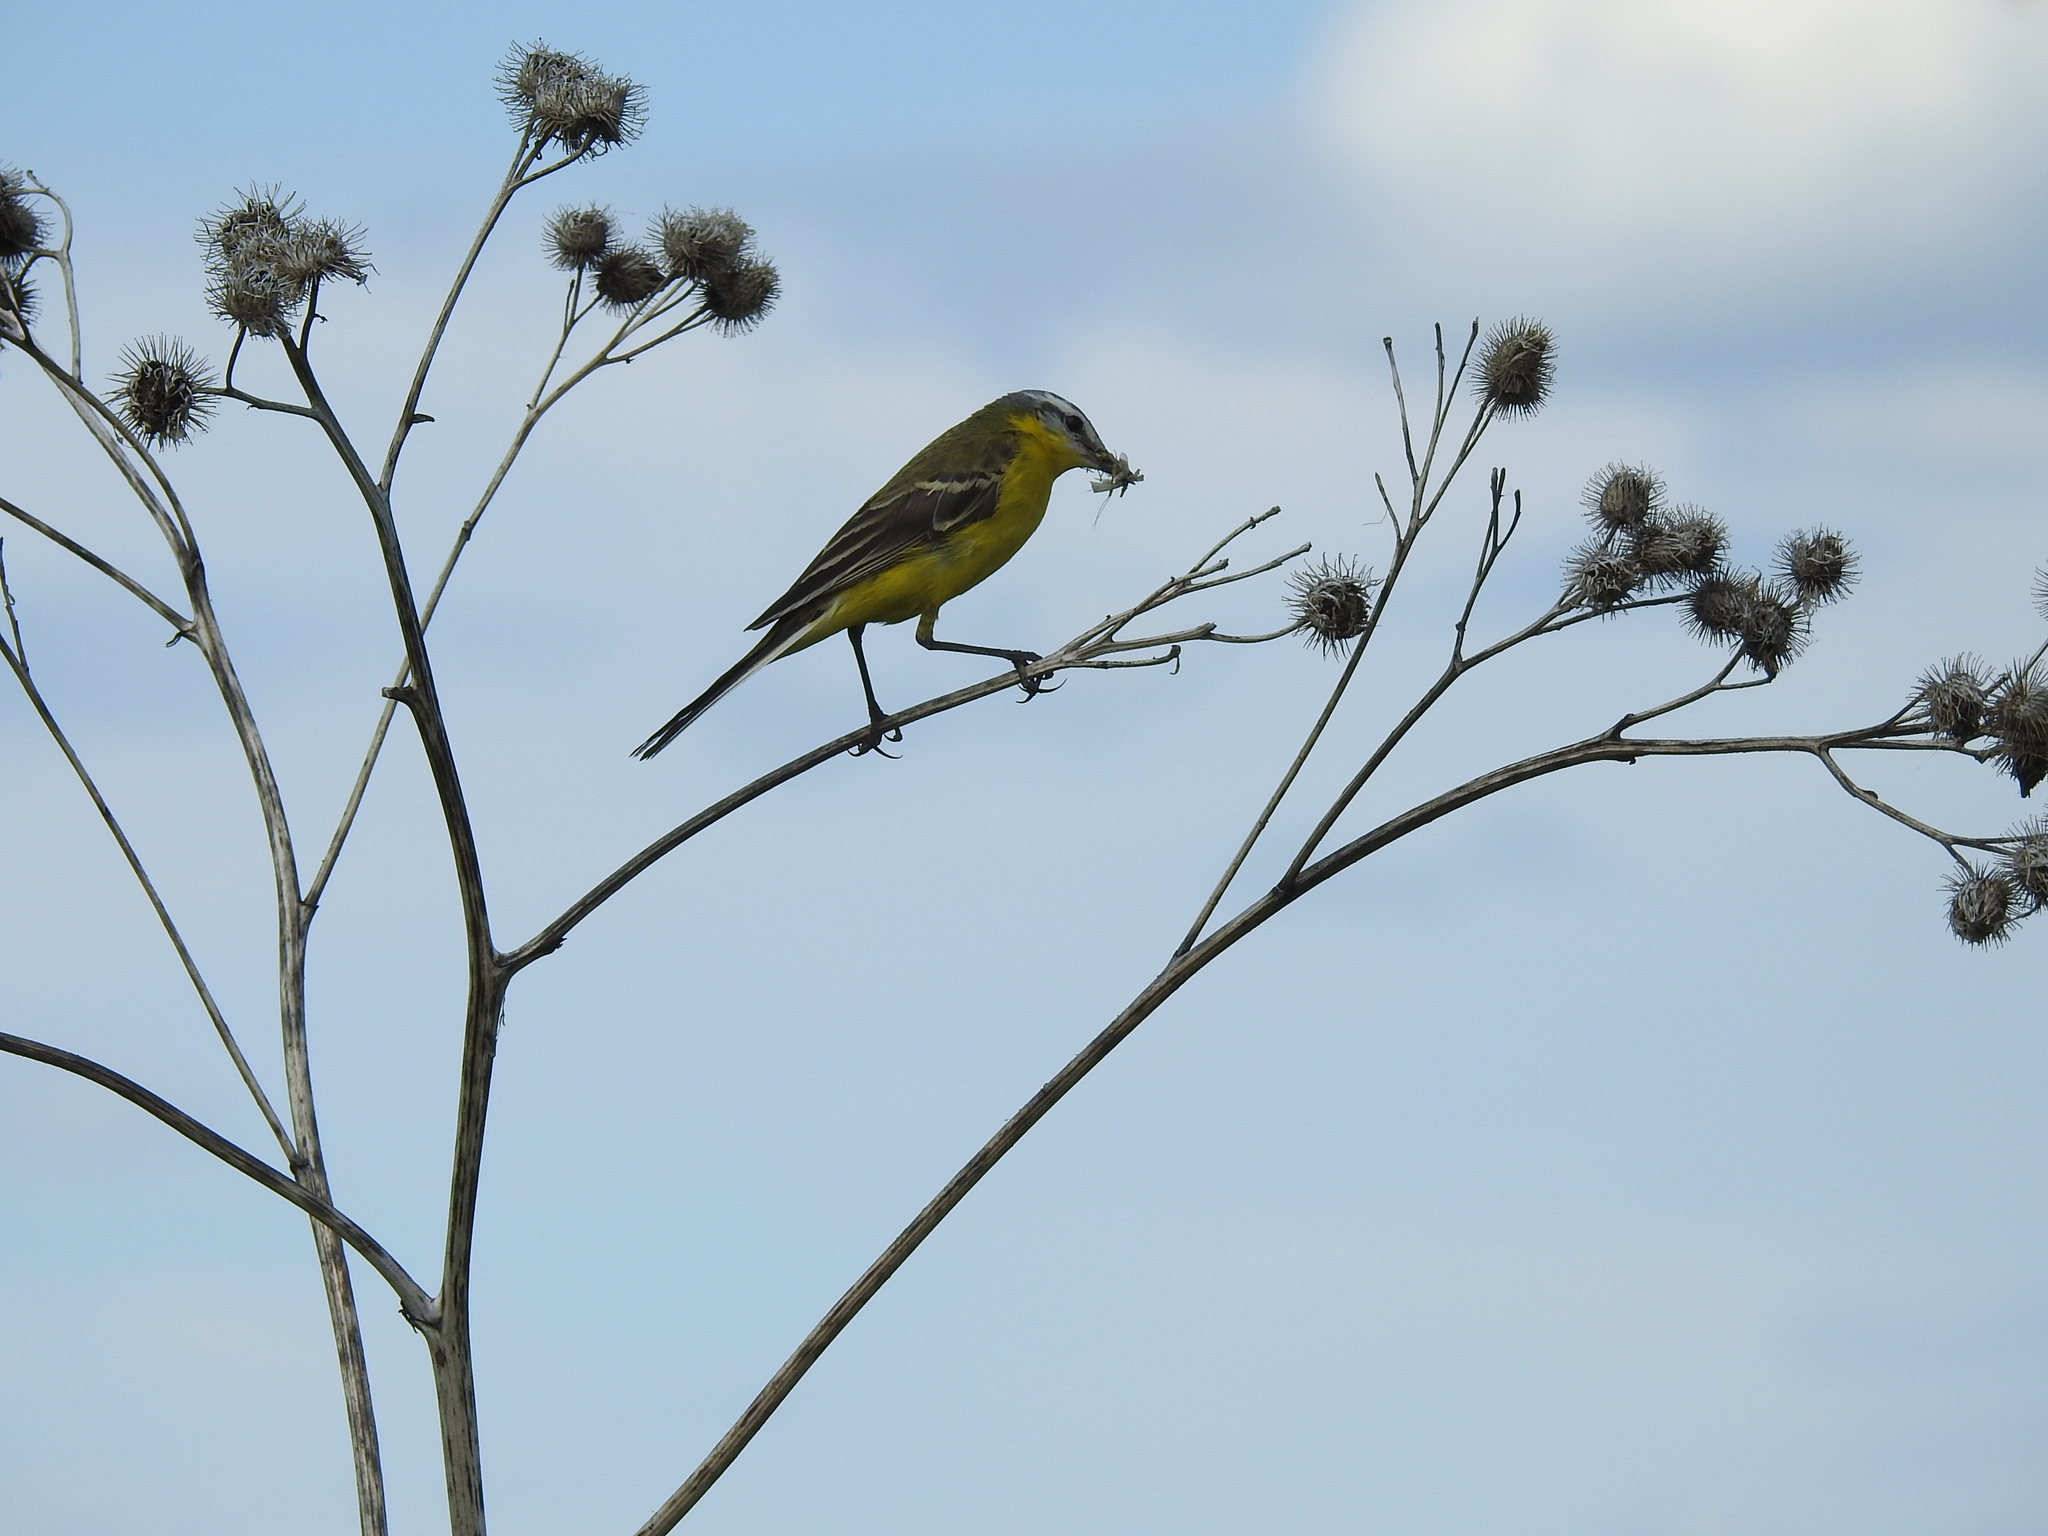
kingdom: Animalia
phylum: Chordata
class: Aves
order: Passeriformes
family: Motacillidae
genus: Motacilla
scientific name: Motacilla flava
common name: Western yellow wagtail
